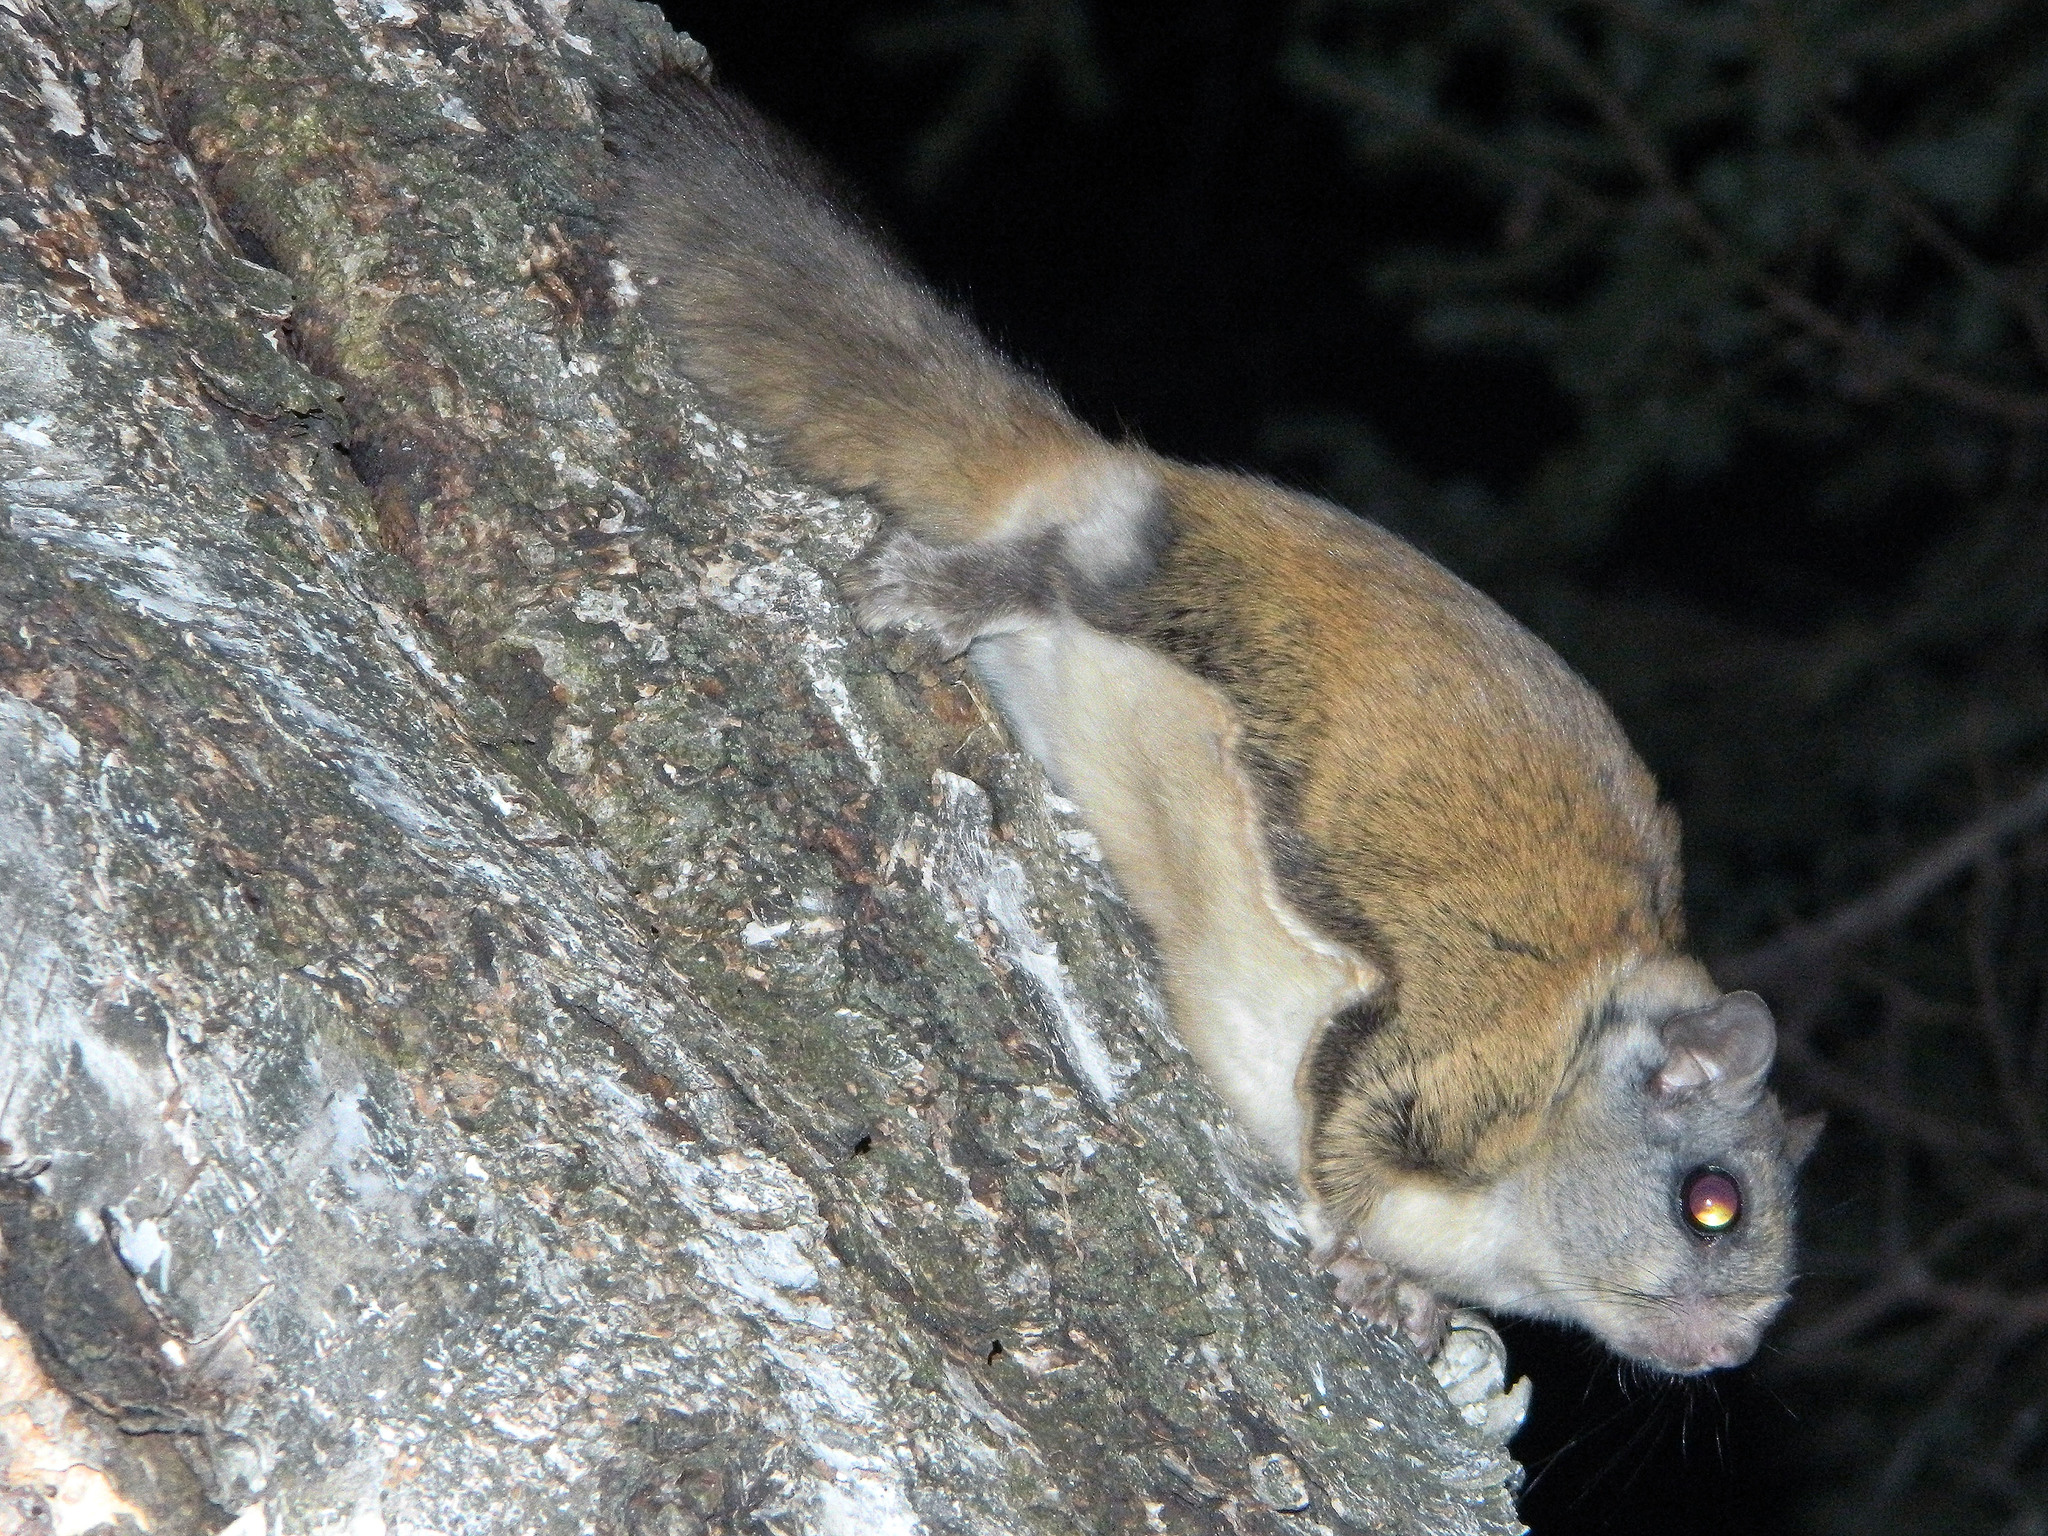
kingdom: Animalia
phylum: Chordata
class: Mammalia
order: Rodentia
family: Sciuridae
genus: Glaucomys
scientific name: Glaucomys sabrinus
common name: Northern flying squirrel
